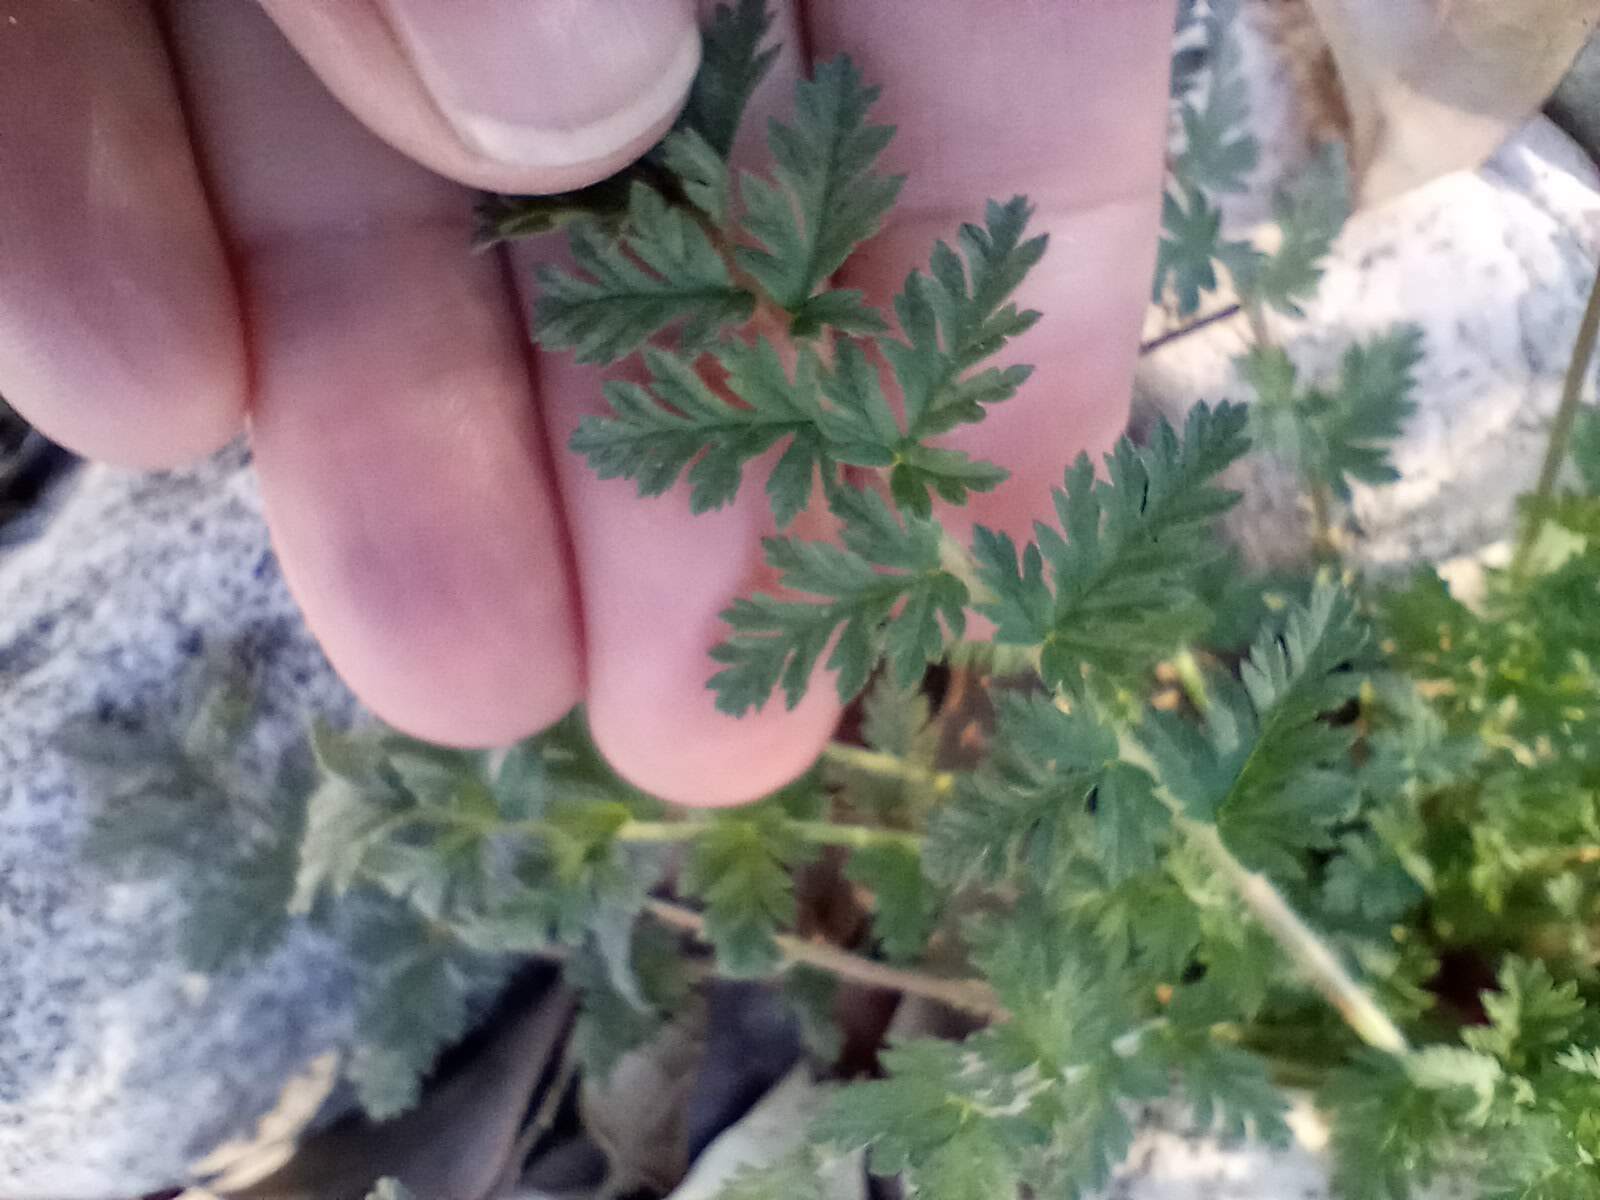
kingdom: Plantae
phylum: Tracheophyta
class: Magnoliopsida
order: Geraniales
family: Geraniaceae
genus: Erodium
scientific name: Erodium cicutarium
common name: Common stork's-bill
